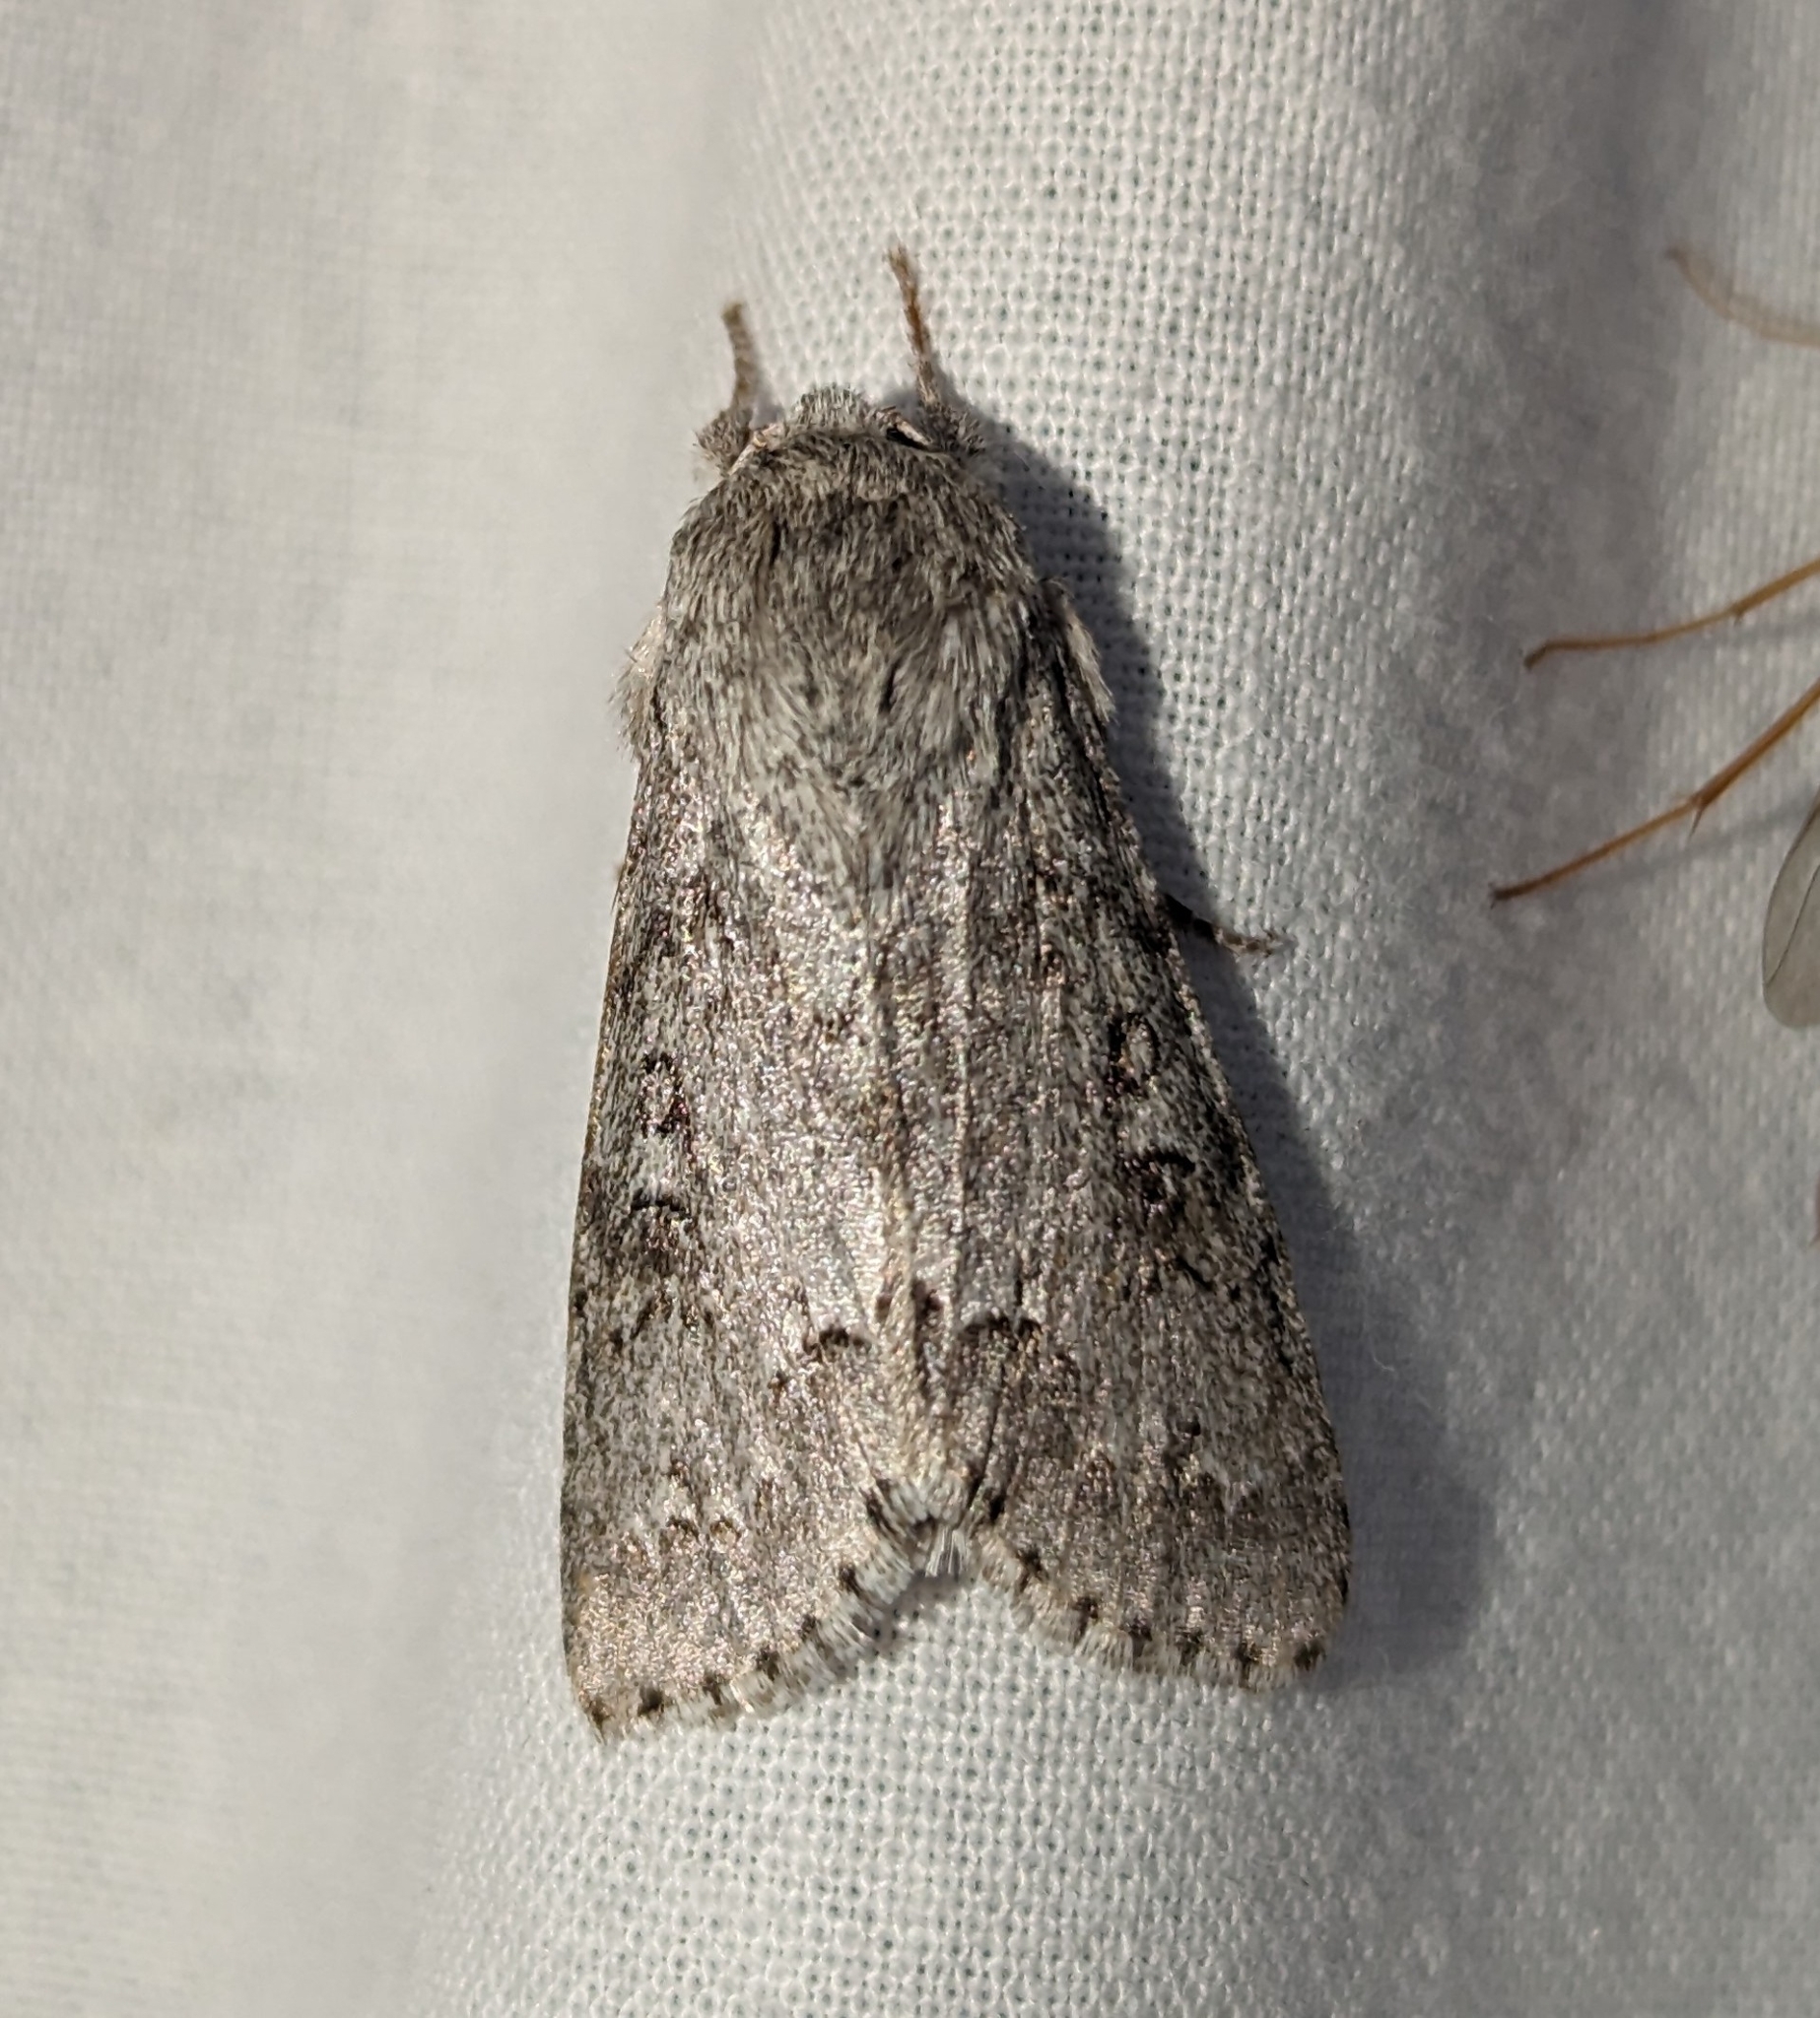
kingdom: Animalia
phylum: Arthropoda
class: Insecta
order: Lepidoptera
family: Noctuidae
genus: Acronicta
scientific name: Acronicta insita
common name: Large gray dagger
